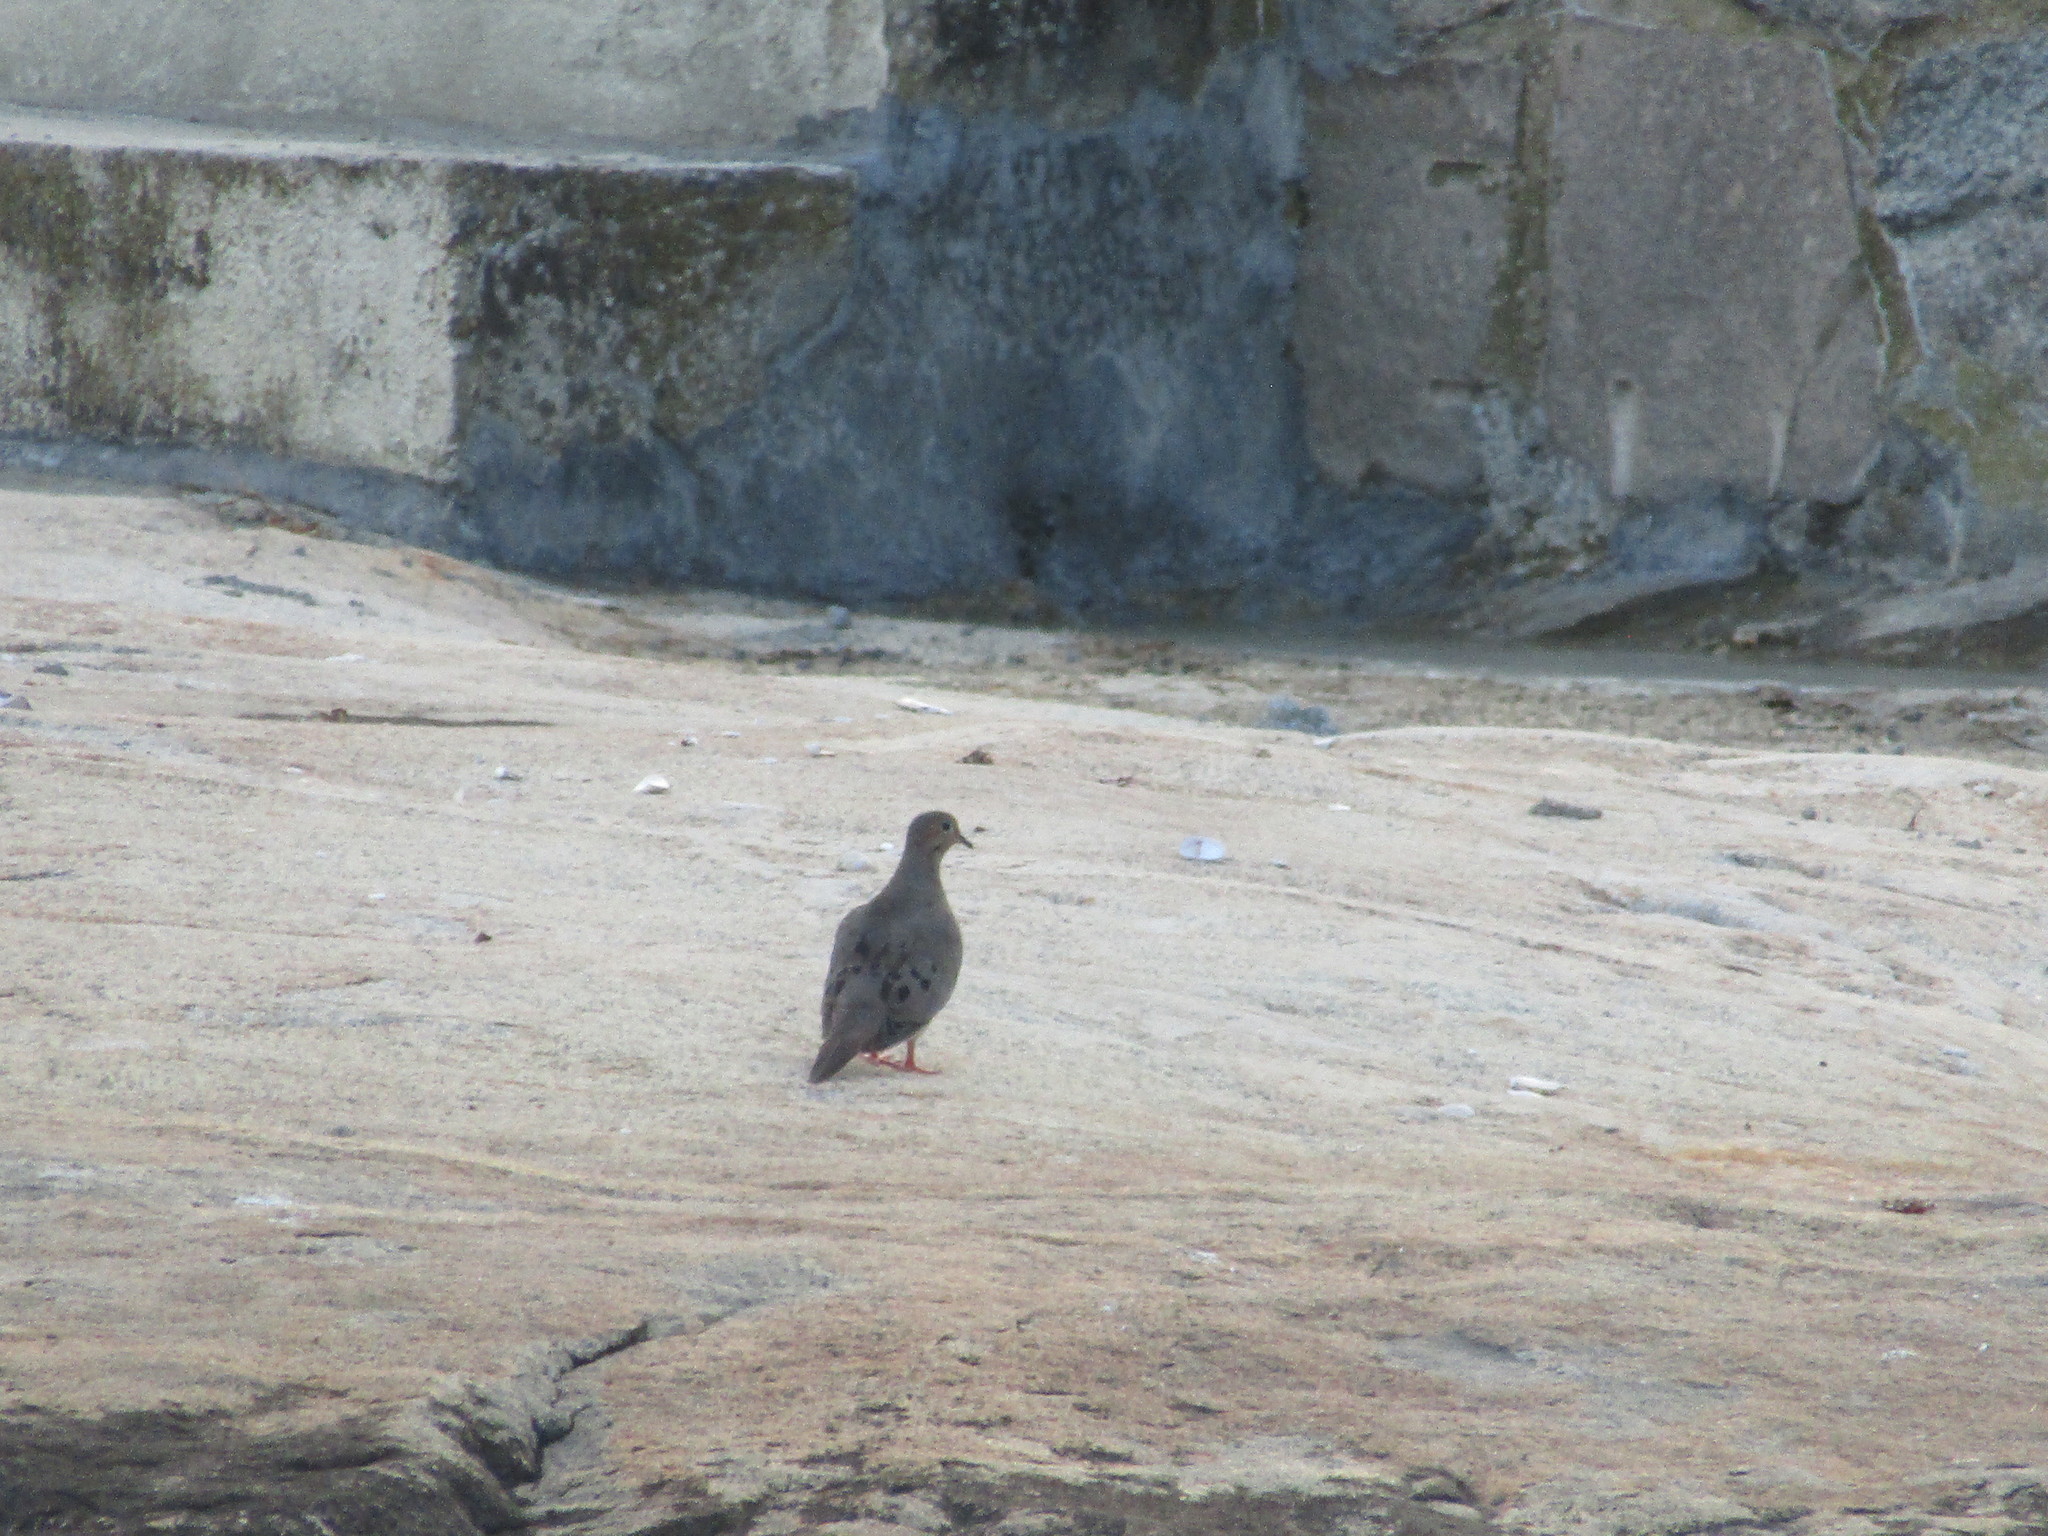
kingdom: Animalia
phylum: Chordata
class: Aves
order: Columbiformes
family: Columbidae
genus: Zenaida
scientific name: Zenaida macroura
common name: Mourning dove
